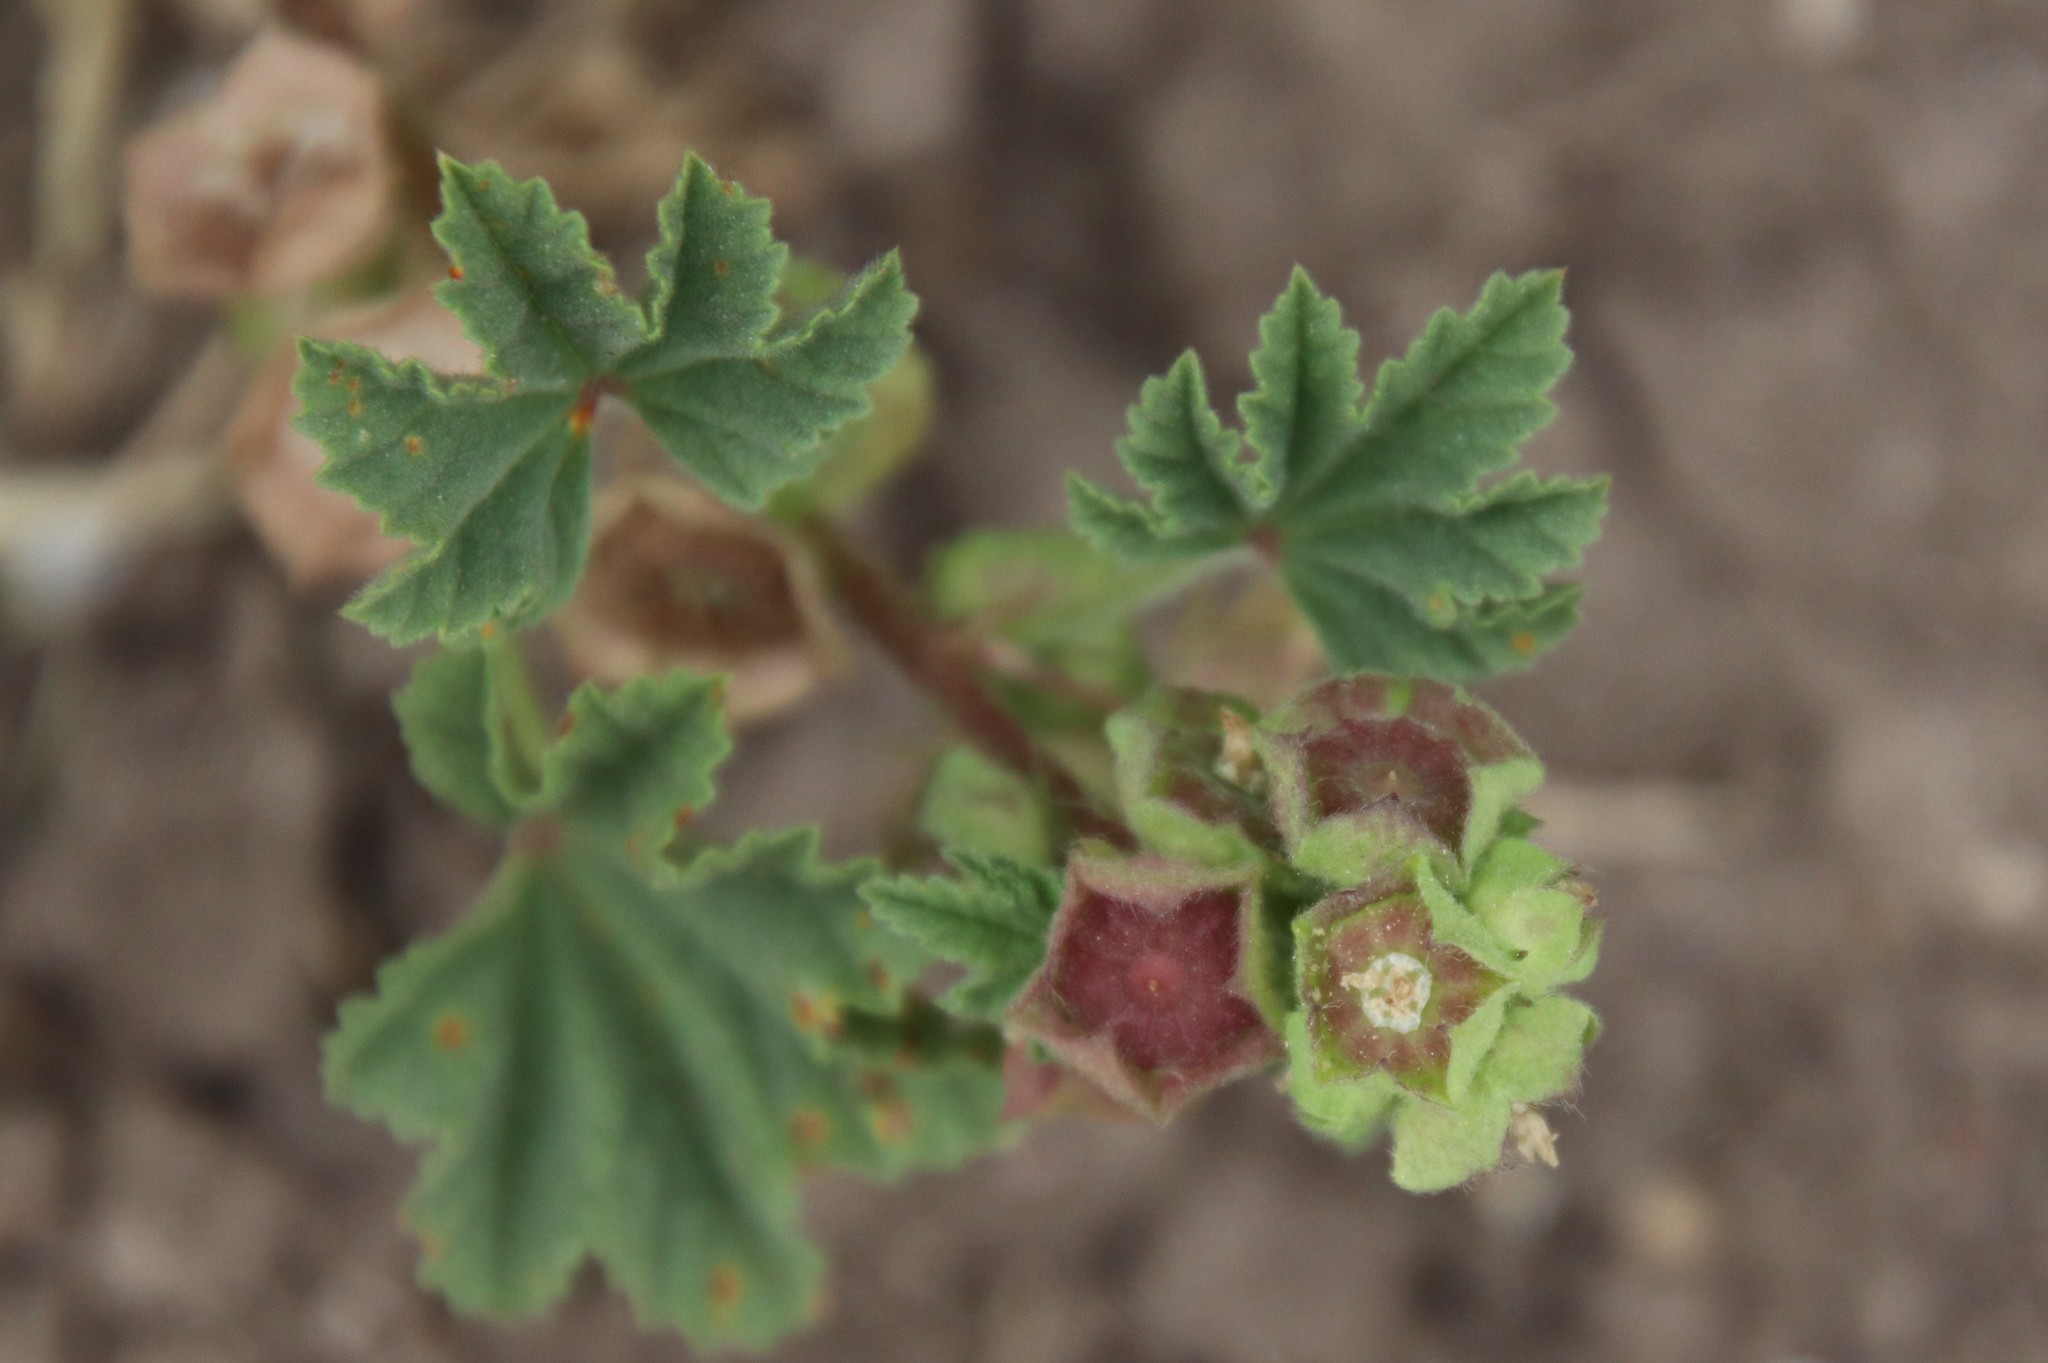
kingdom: Plantae
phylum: Tracheophyta
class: Magnoliopsida
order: Malvales
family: Malvaceae
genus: Malva
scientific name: Malva parviflora
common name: Least mallow
